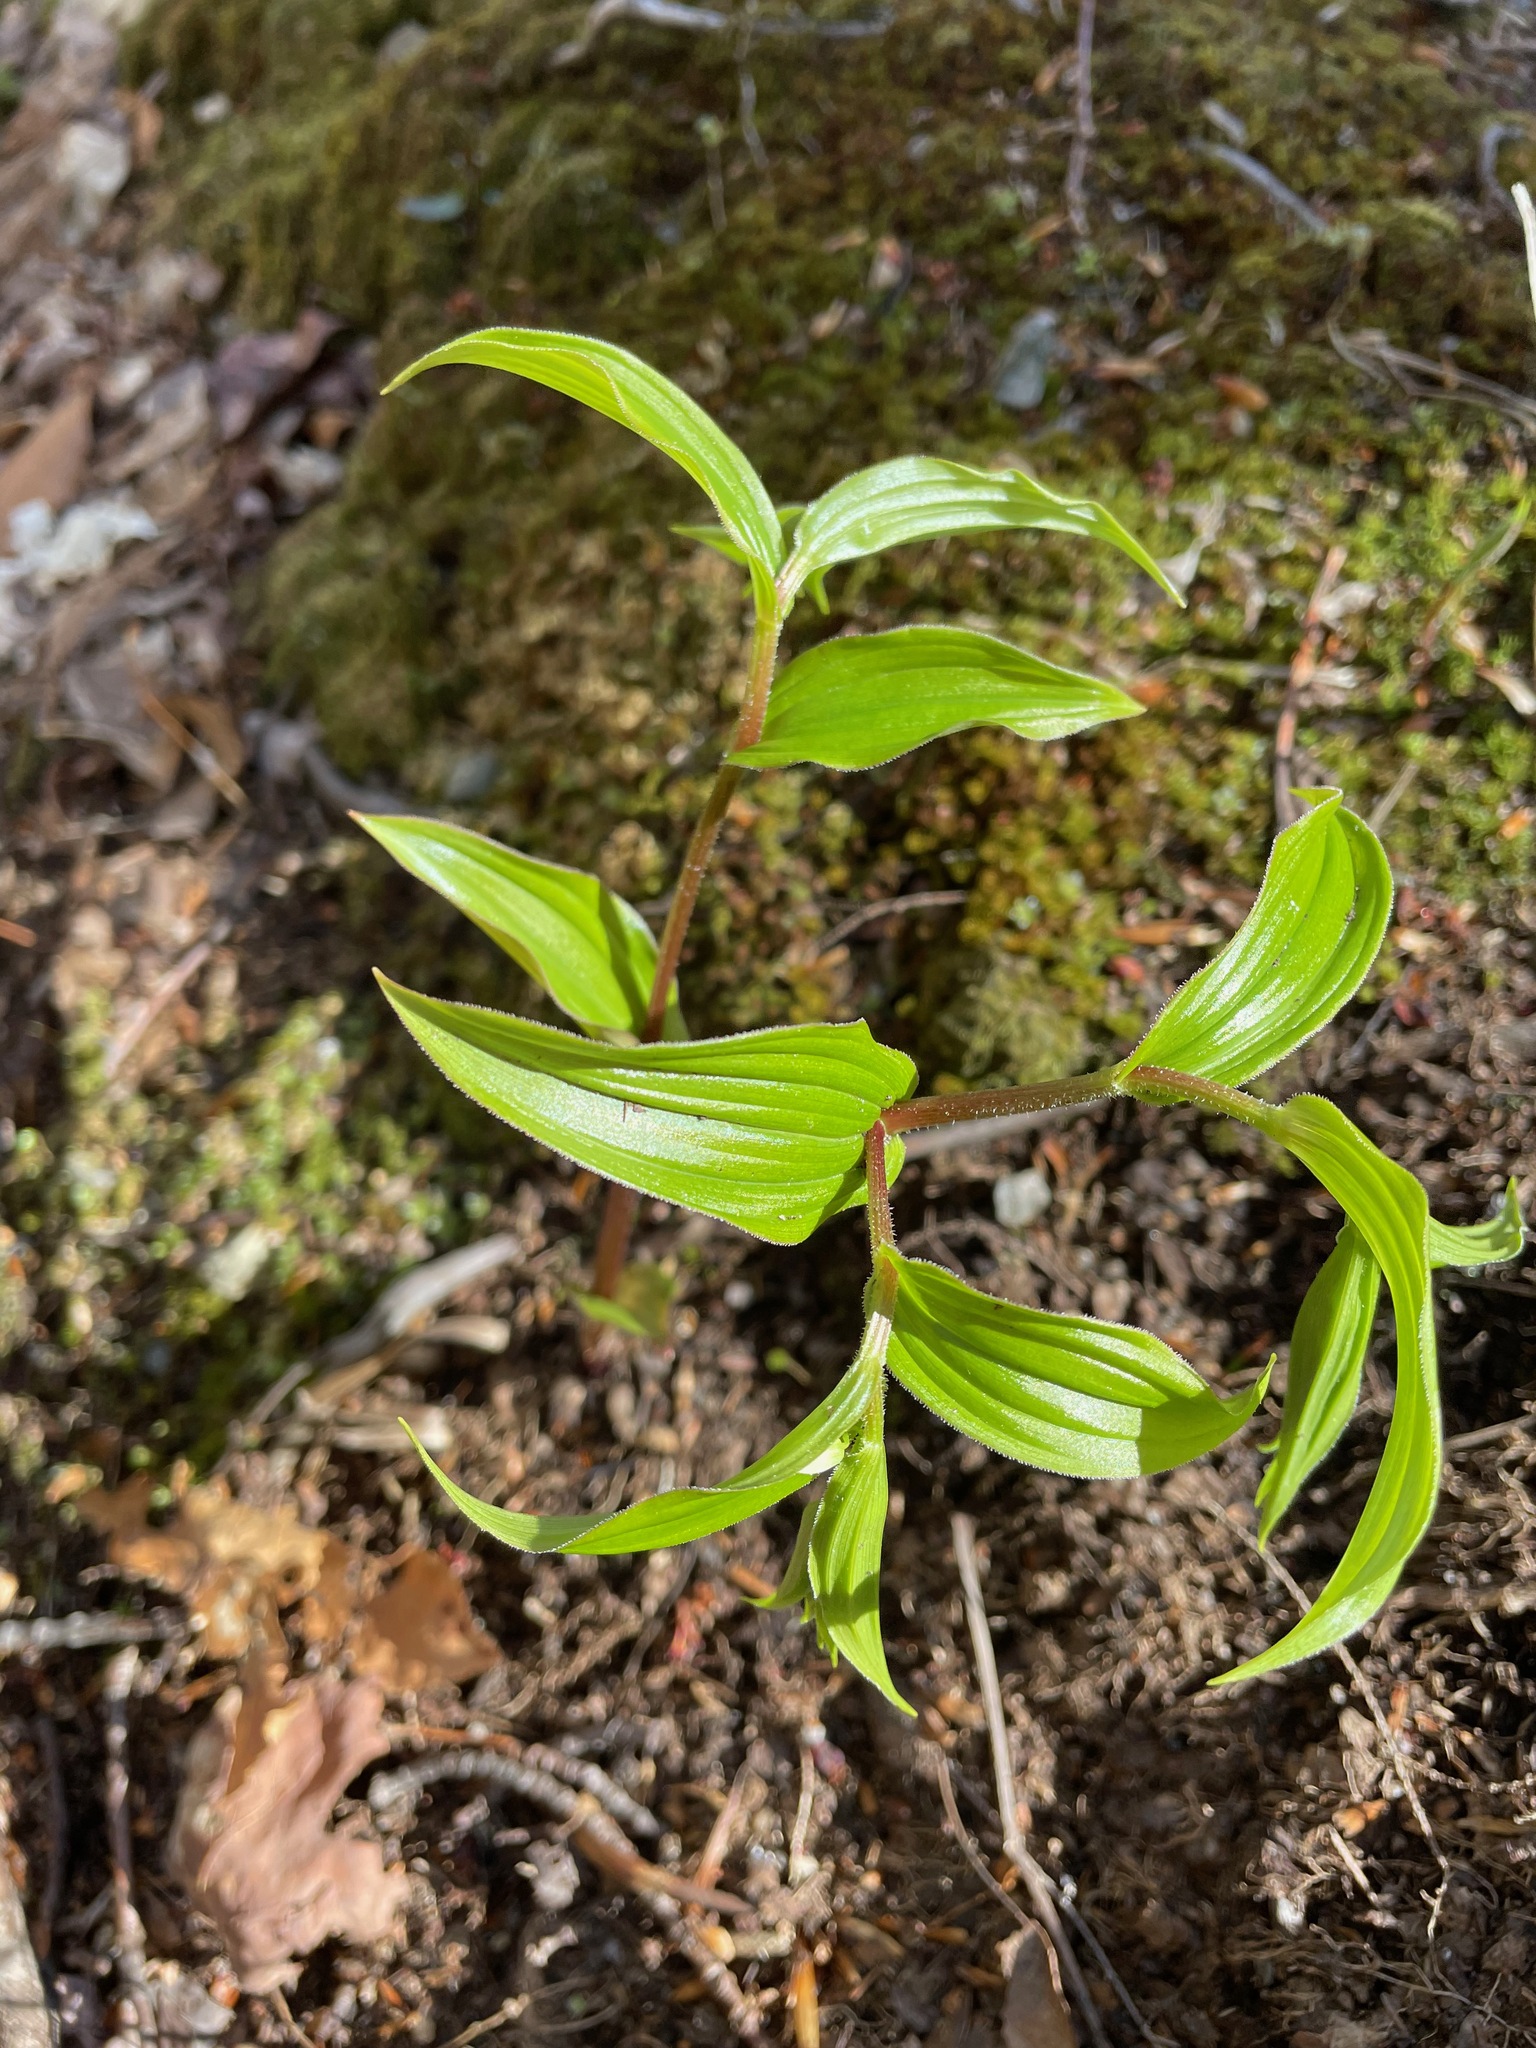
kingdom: Plantae
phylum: Tracheophyta
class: Liliopsida
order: Liliales
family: Liliaceae
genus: Streptopus
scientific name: Streptopus lanceolatus
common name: Rose mandarin
